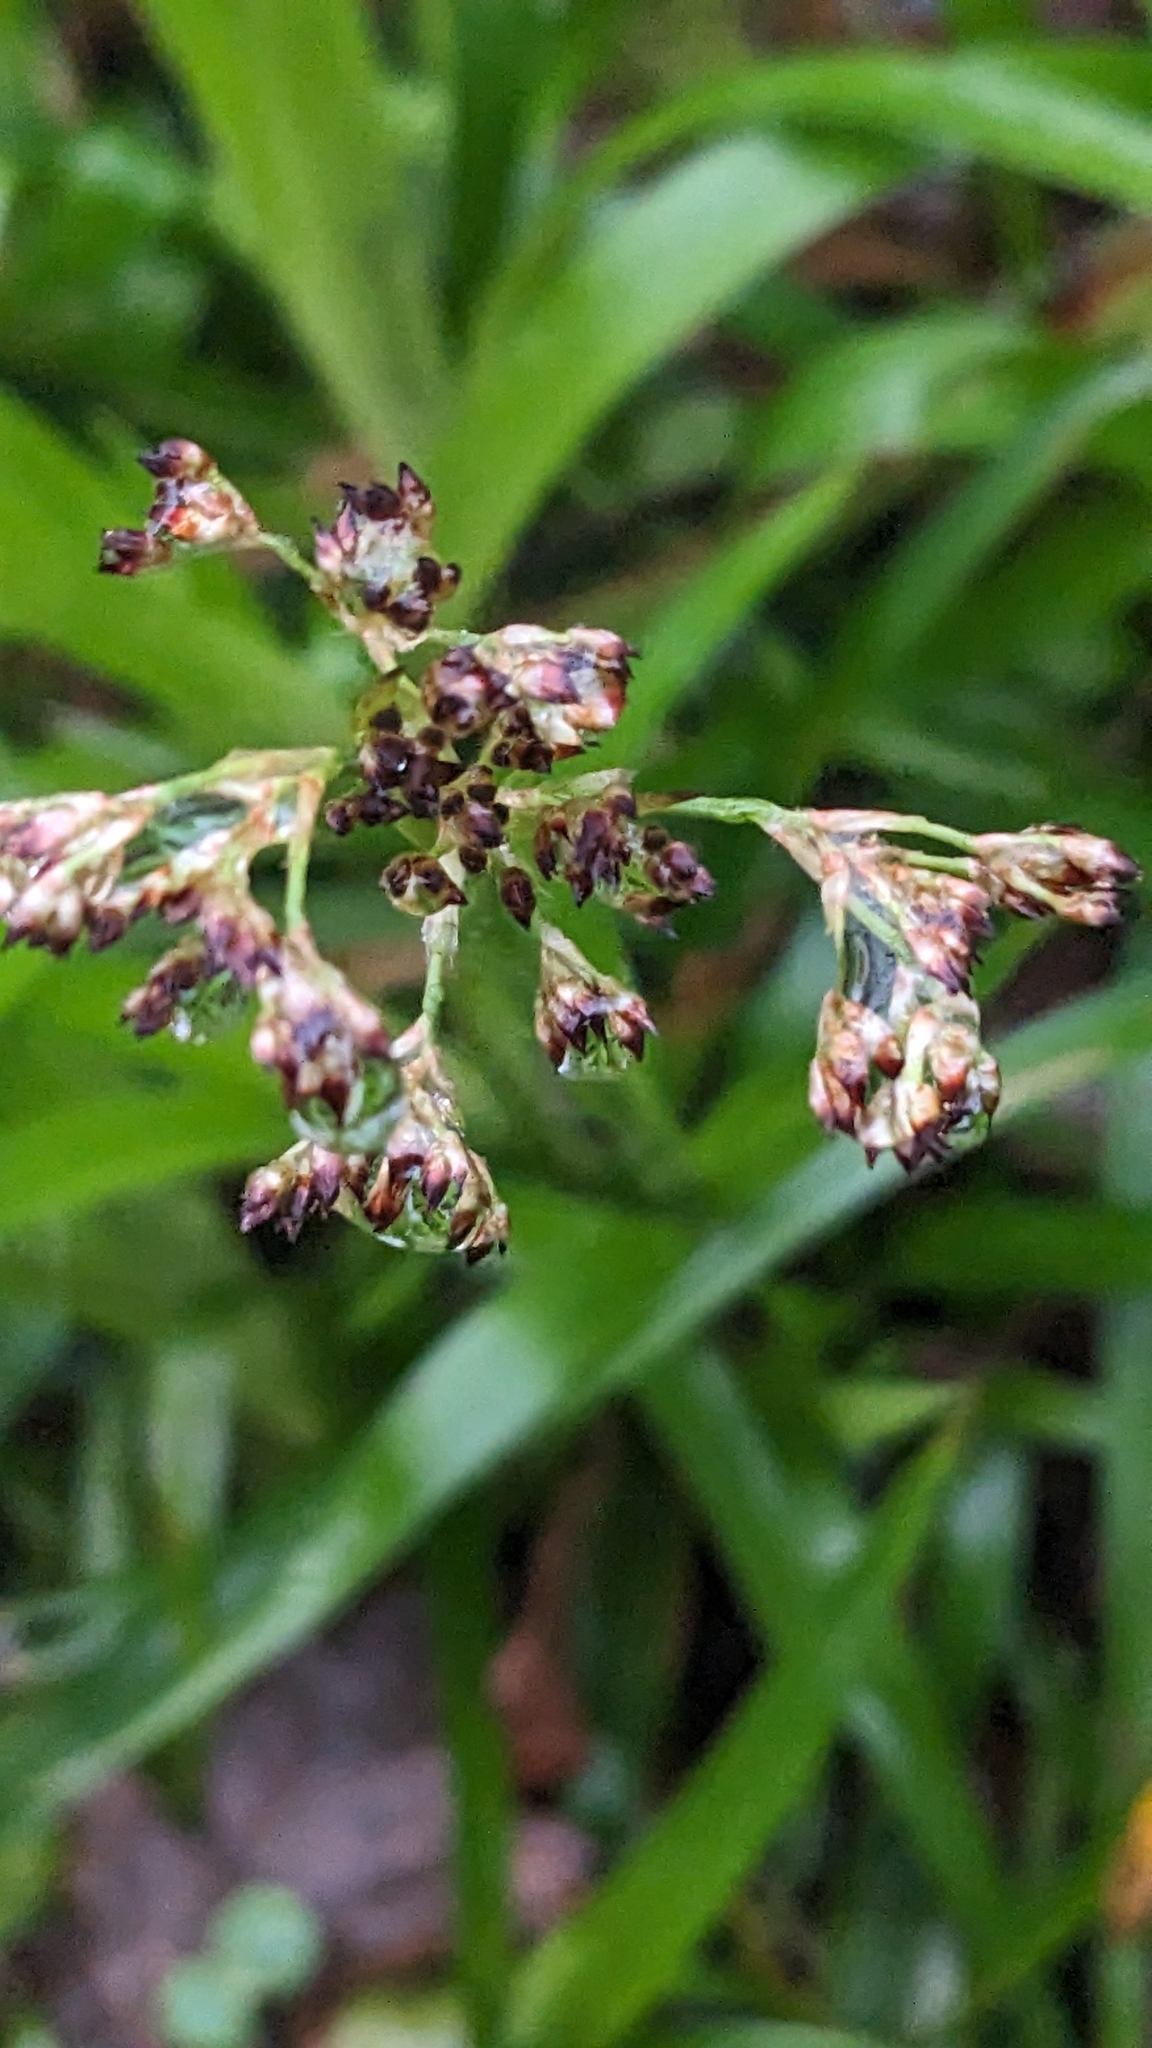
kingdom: Plantae
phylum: Tracheophyta
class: Liliopsida
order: Poales
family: Juncaceae
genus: Luzula
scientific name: Luzula sylvatica
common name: Great wood-rush
